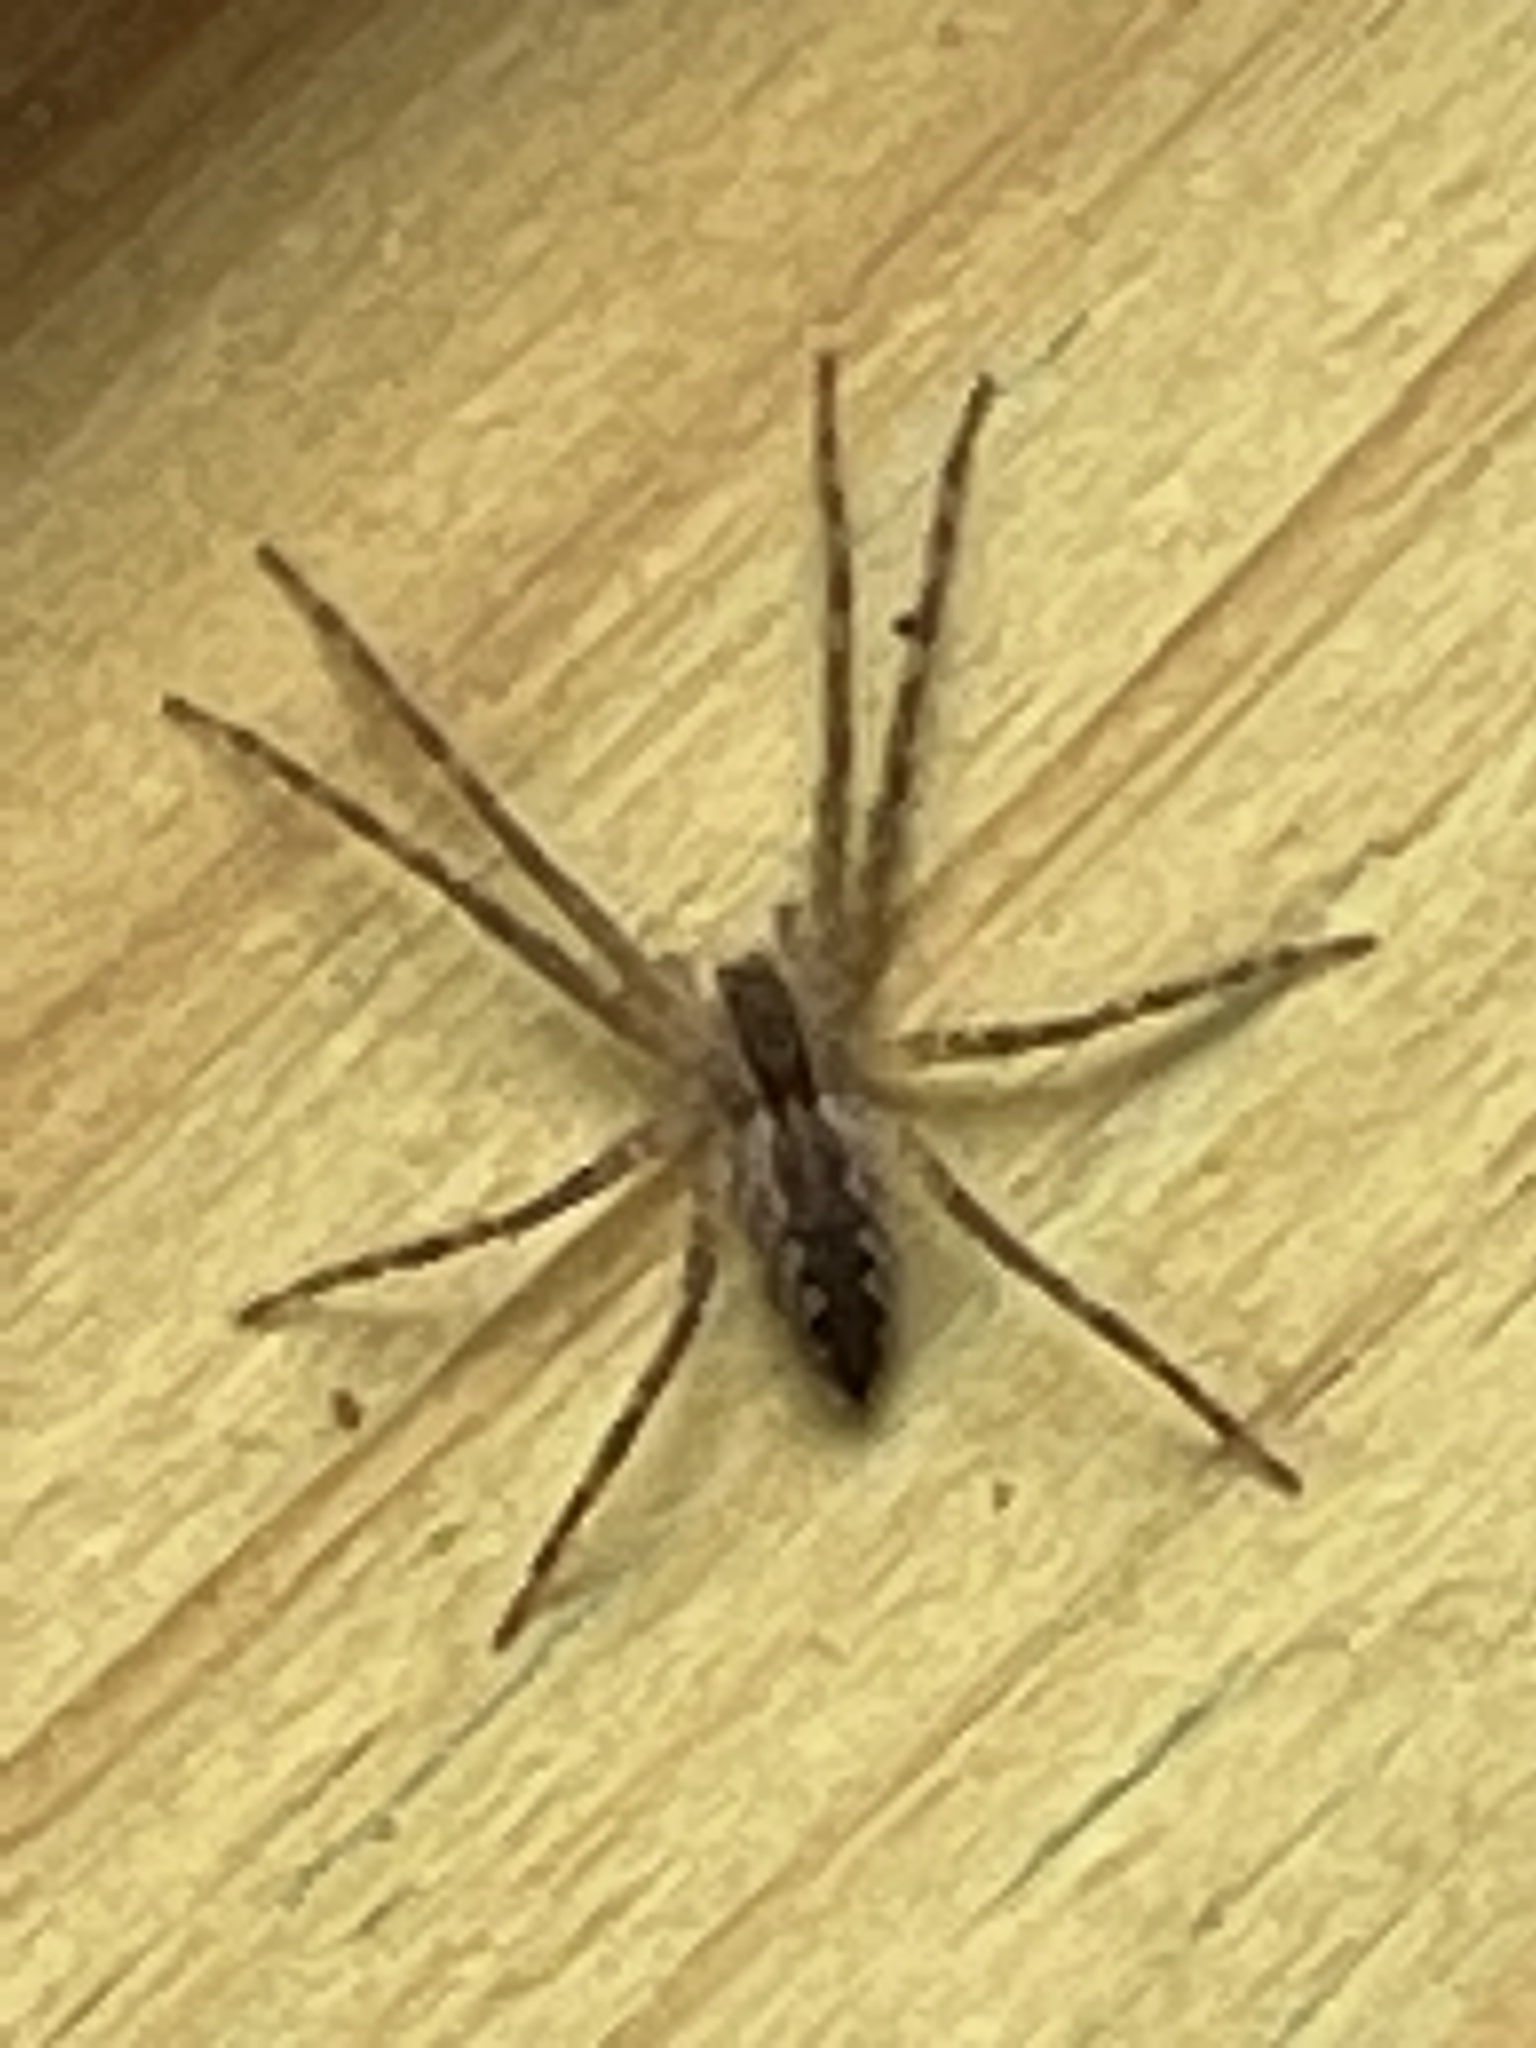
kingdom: Animalia
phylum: Arthropoda
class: Arachnida
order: Araneae
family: Pisauridae
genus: Pisaurina
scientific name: Pisaurina mira
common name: American nursery web spider
